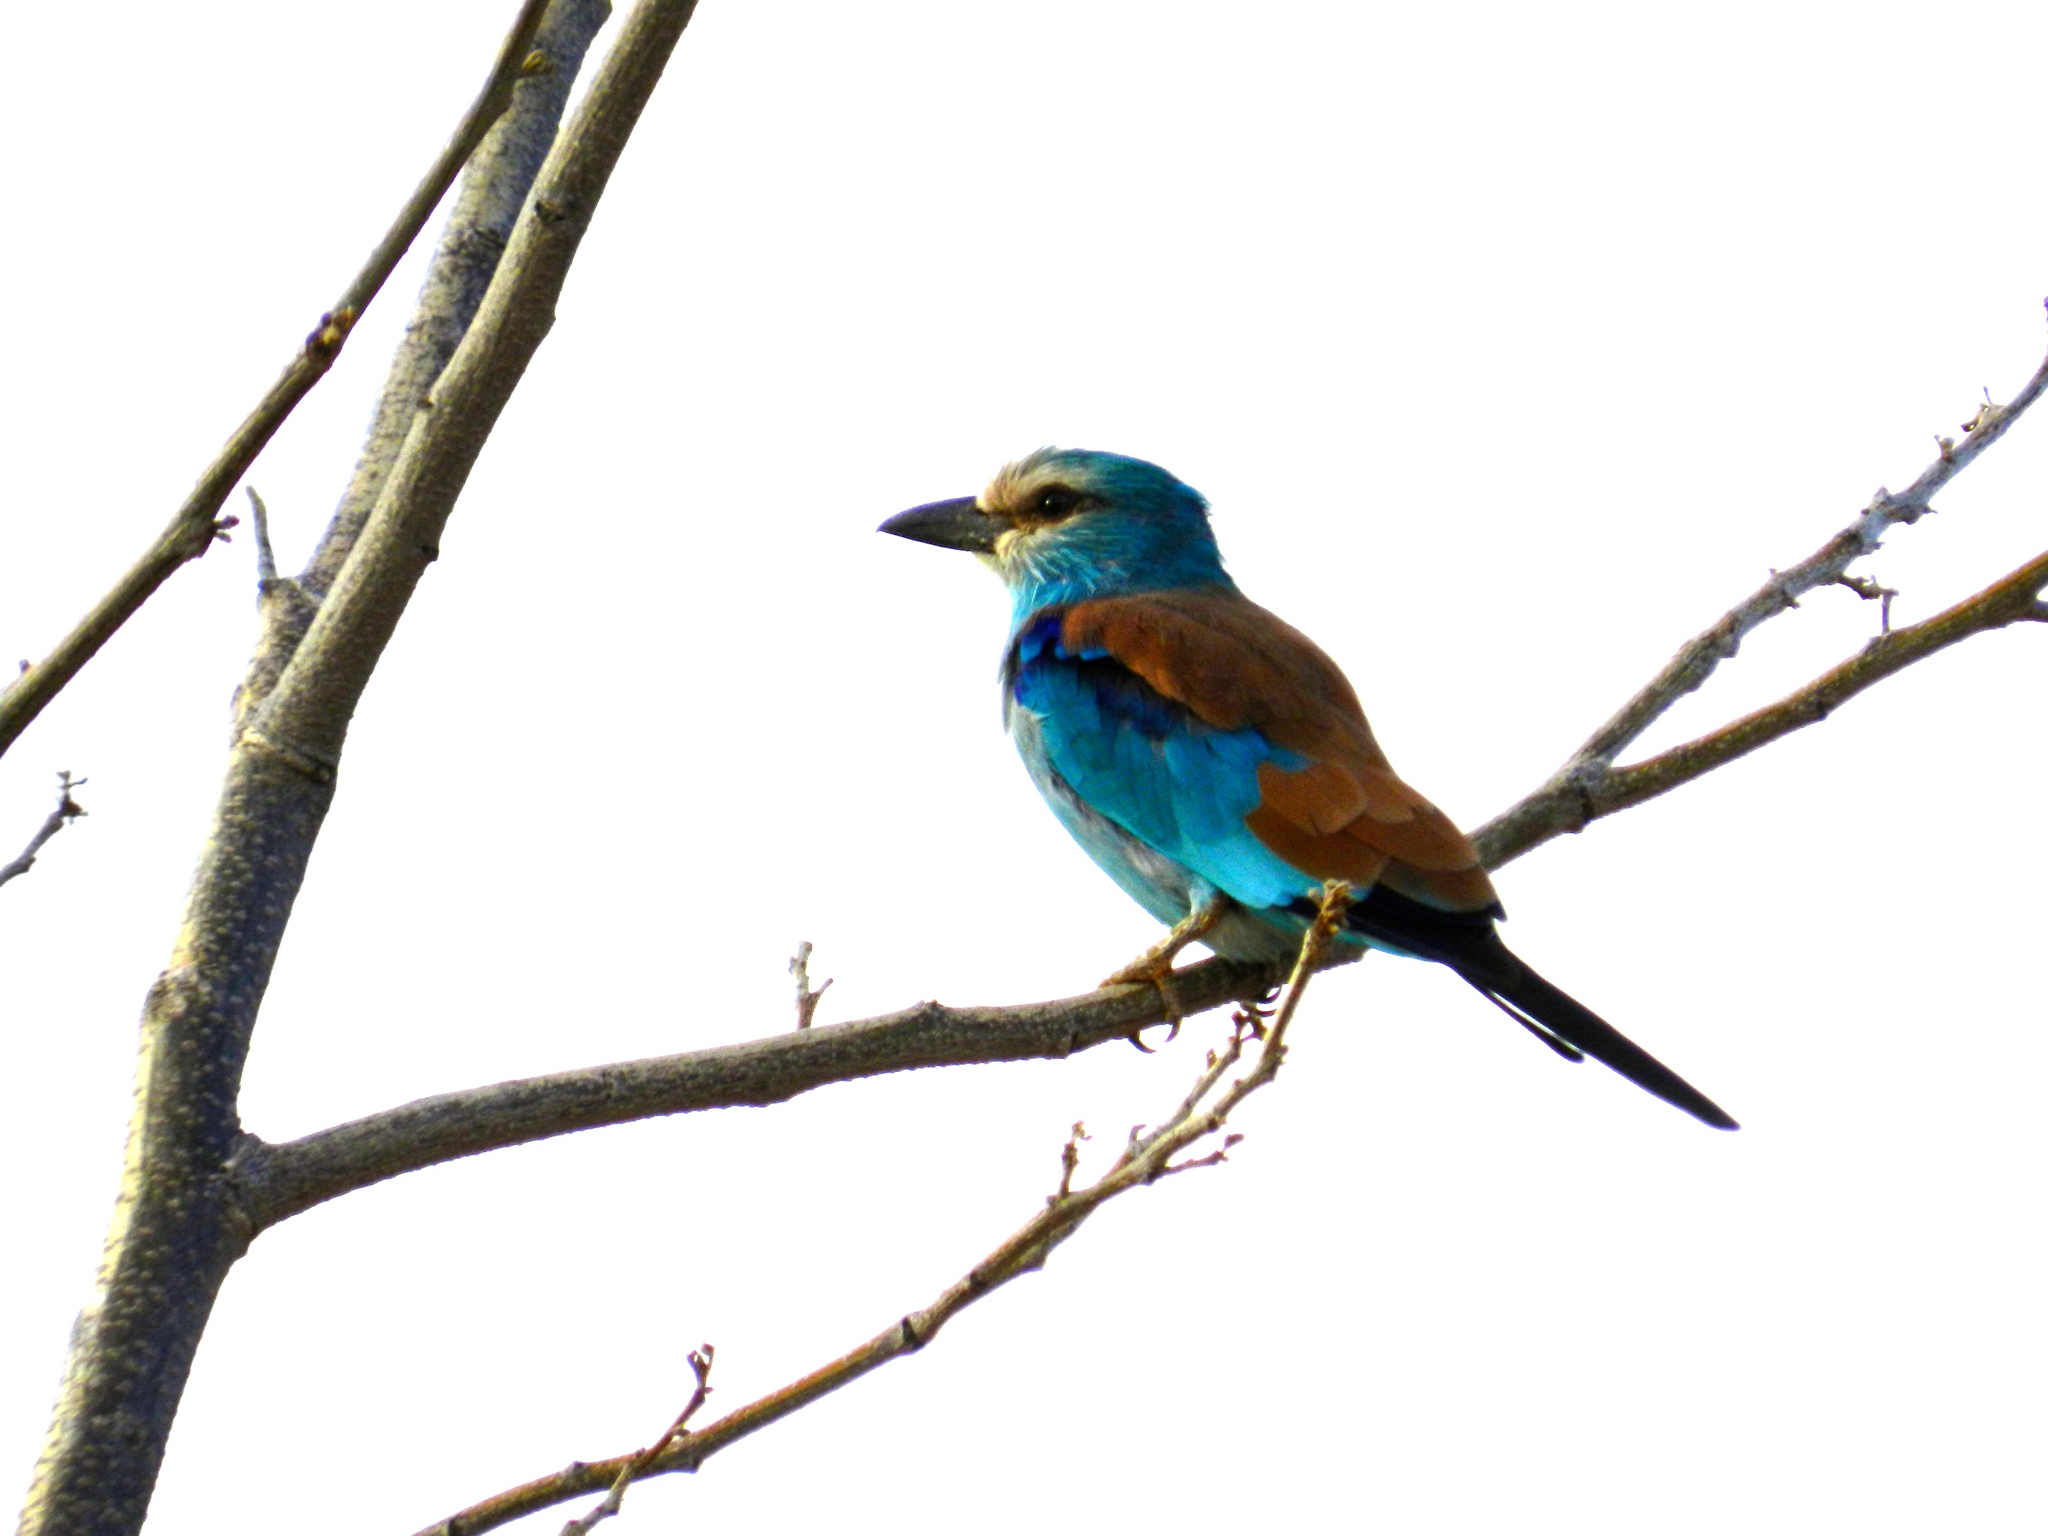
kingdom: Animalia
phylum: Chordata
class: Aves
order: Coraciiformes
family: Coraciidae
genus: Coracias
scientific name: Coracias garrulus
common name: European roller
